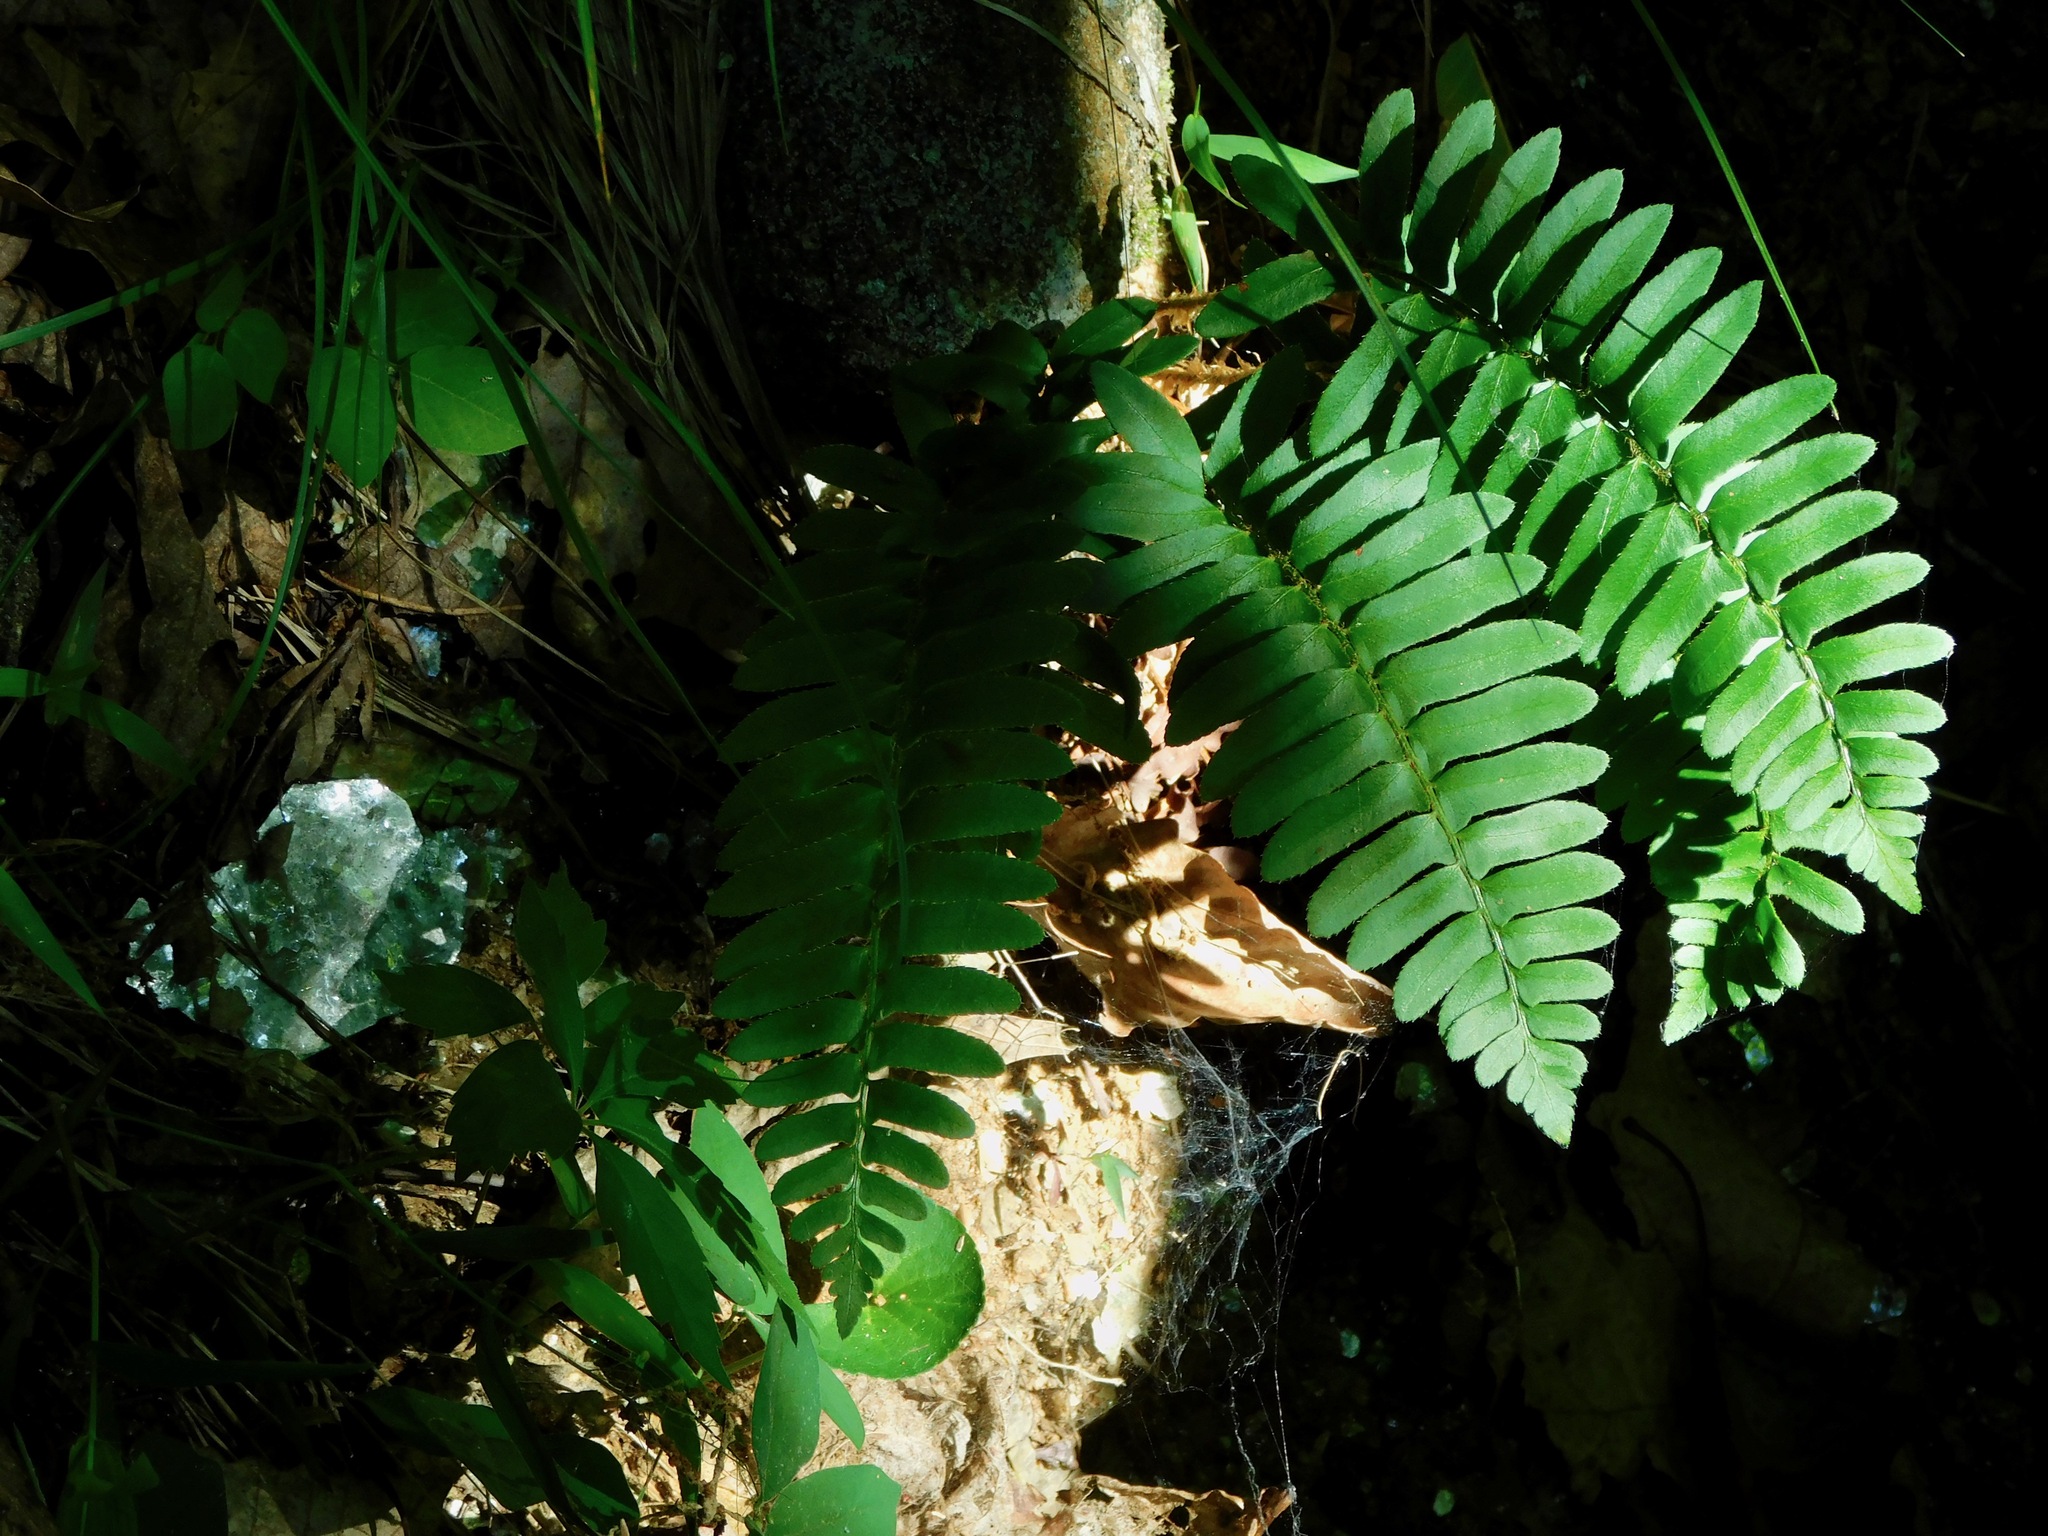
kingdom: Plantae
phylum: Tracheophyta
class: Polypodiopsida
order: Polypodiales
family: Dryopteridaceae
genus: Polystichum
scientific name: Polystichum acrostichoides
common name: Christmas fern
